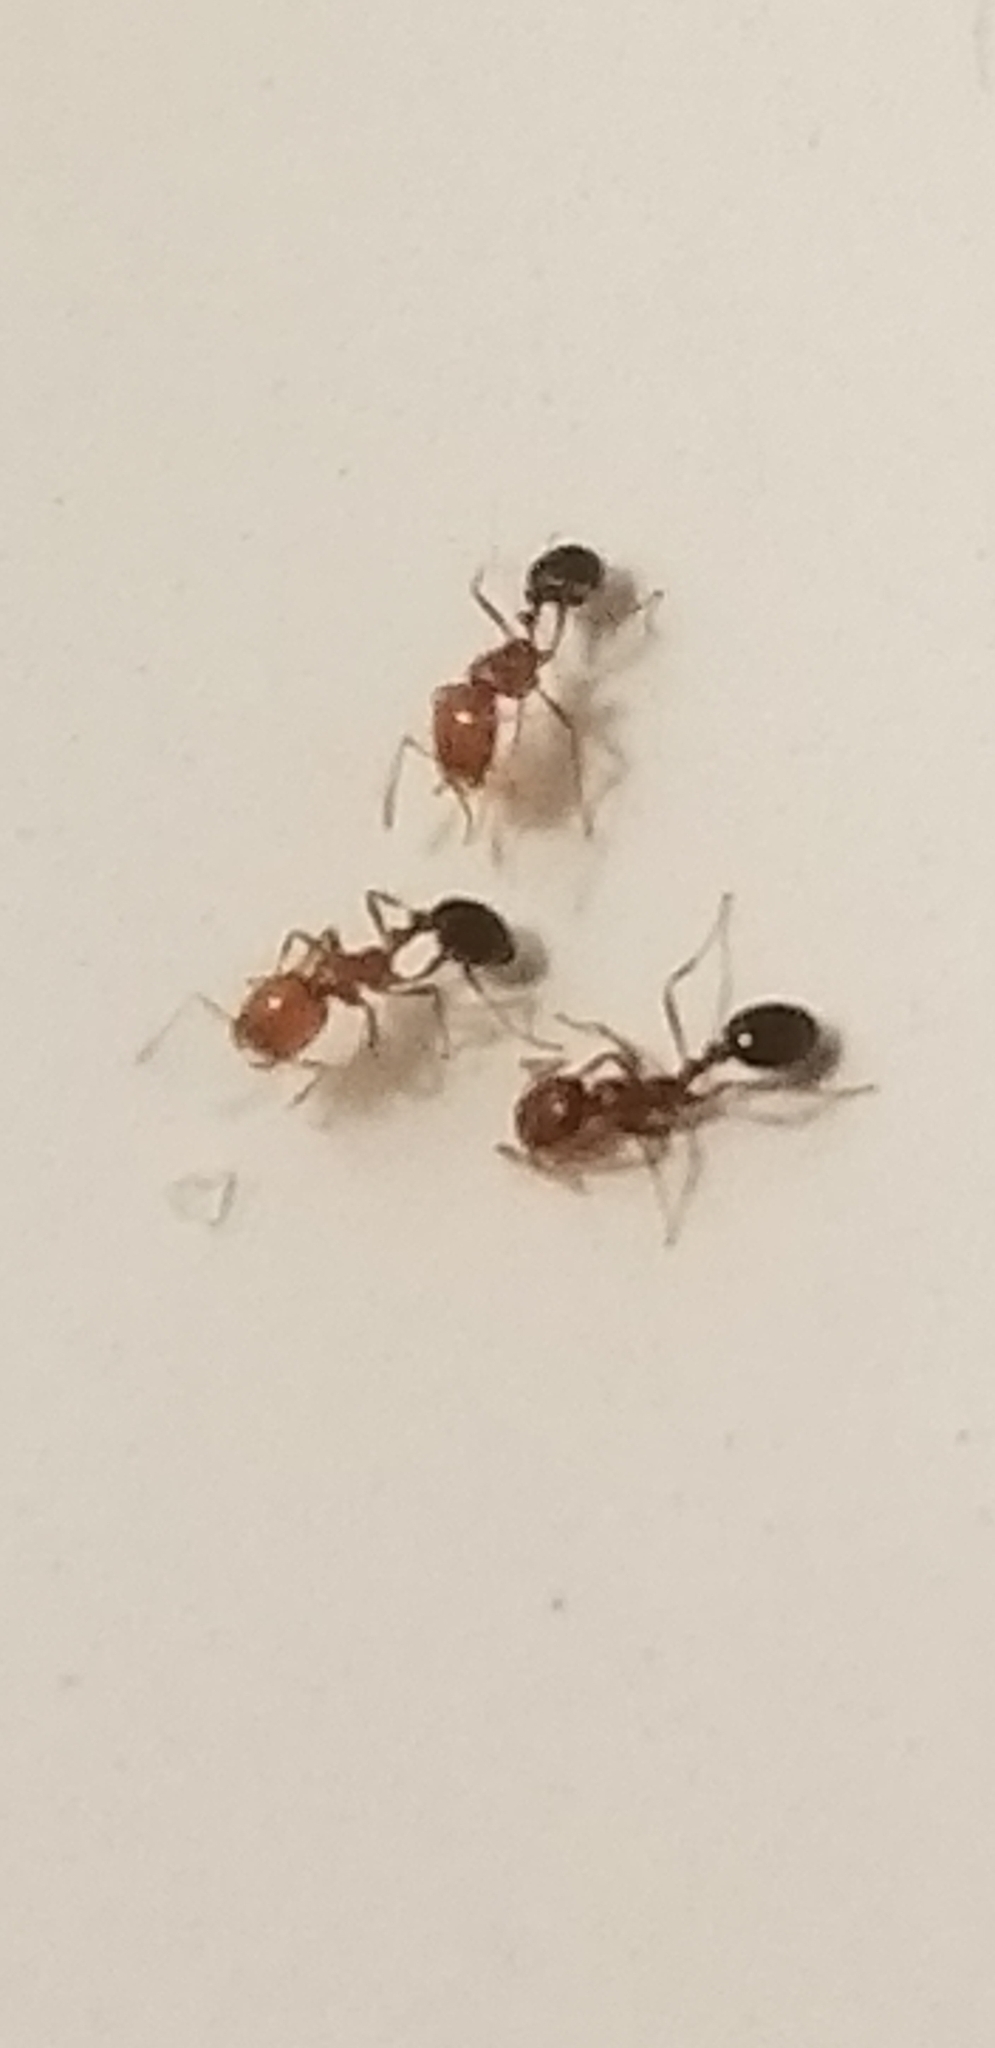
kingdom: Animalia
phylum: Arthropoda
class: Insecta
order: Hymenoptera
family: Formicidae
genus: Solenopsis
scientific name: Solenopsis xyloni
